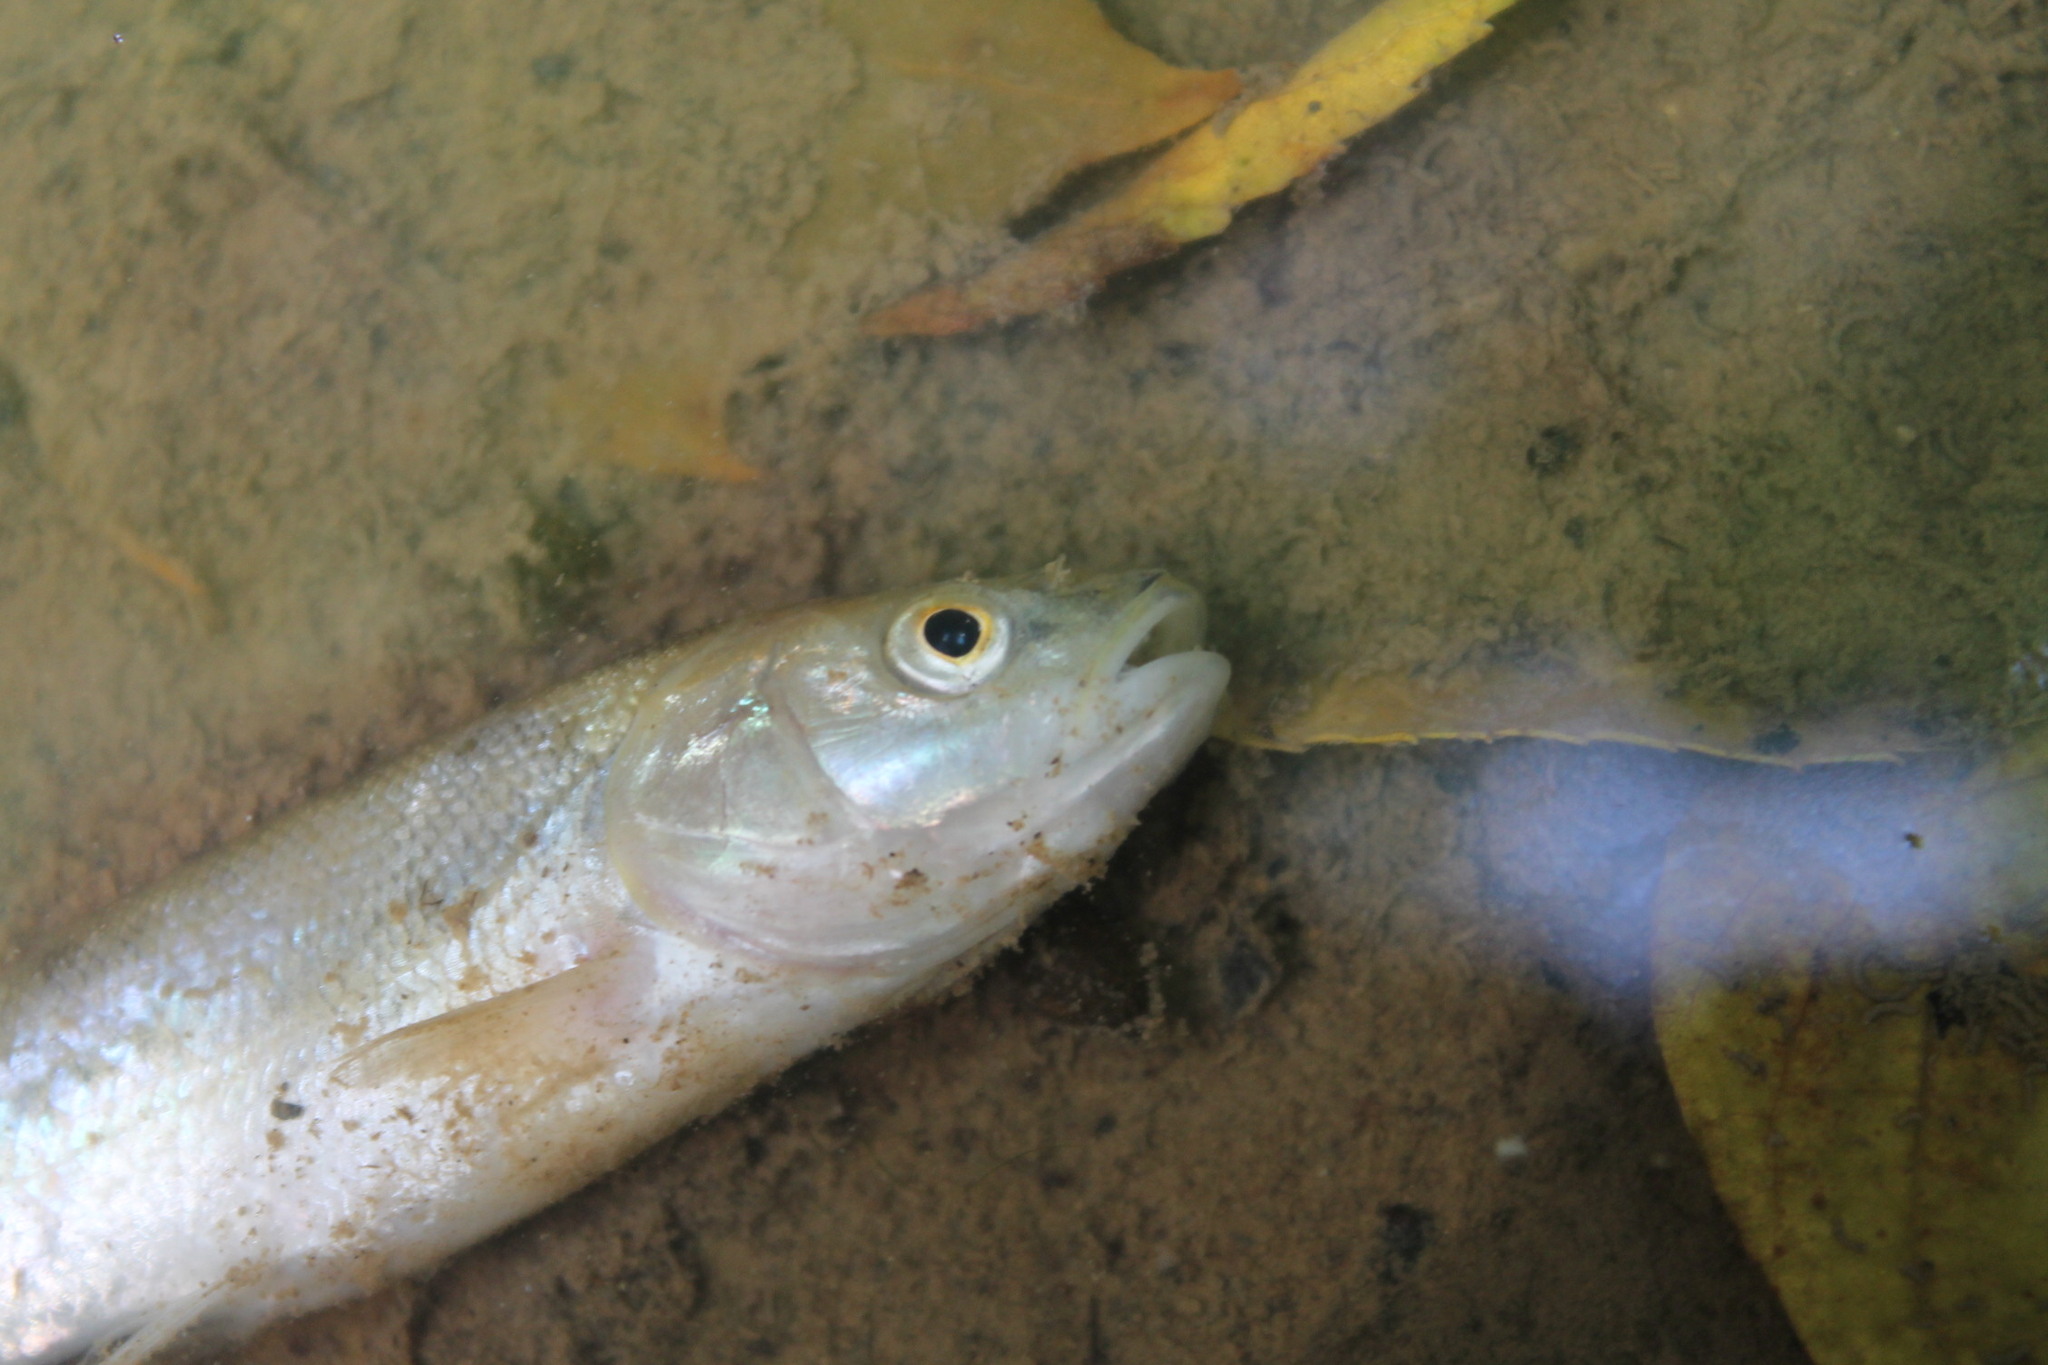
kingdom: Animalia
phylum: Chordata
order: Cypriniformes
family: Cyprinidae
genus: Semotilus
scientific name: Semotilus atromaculatus
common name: Creek chub
